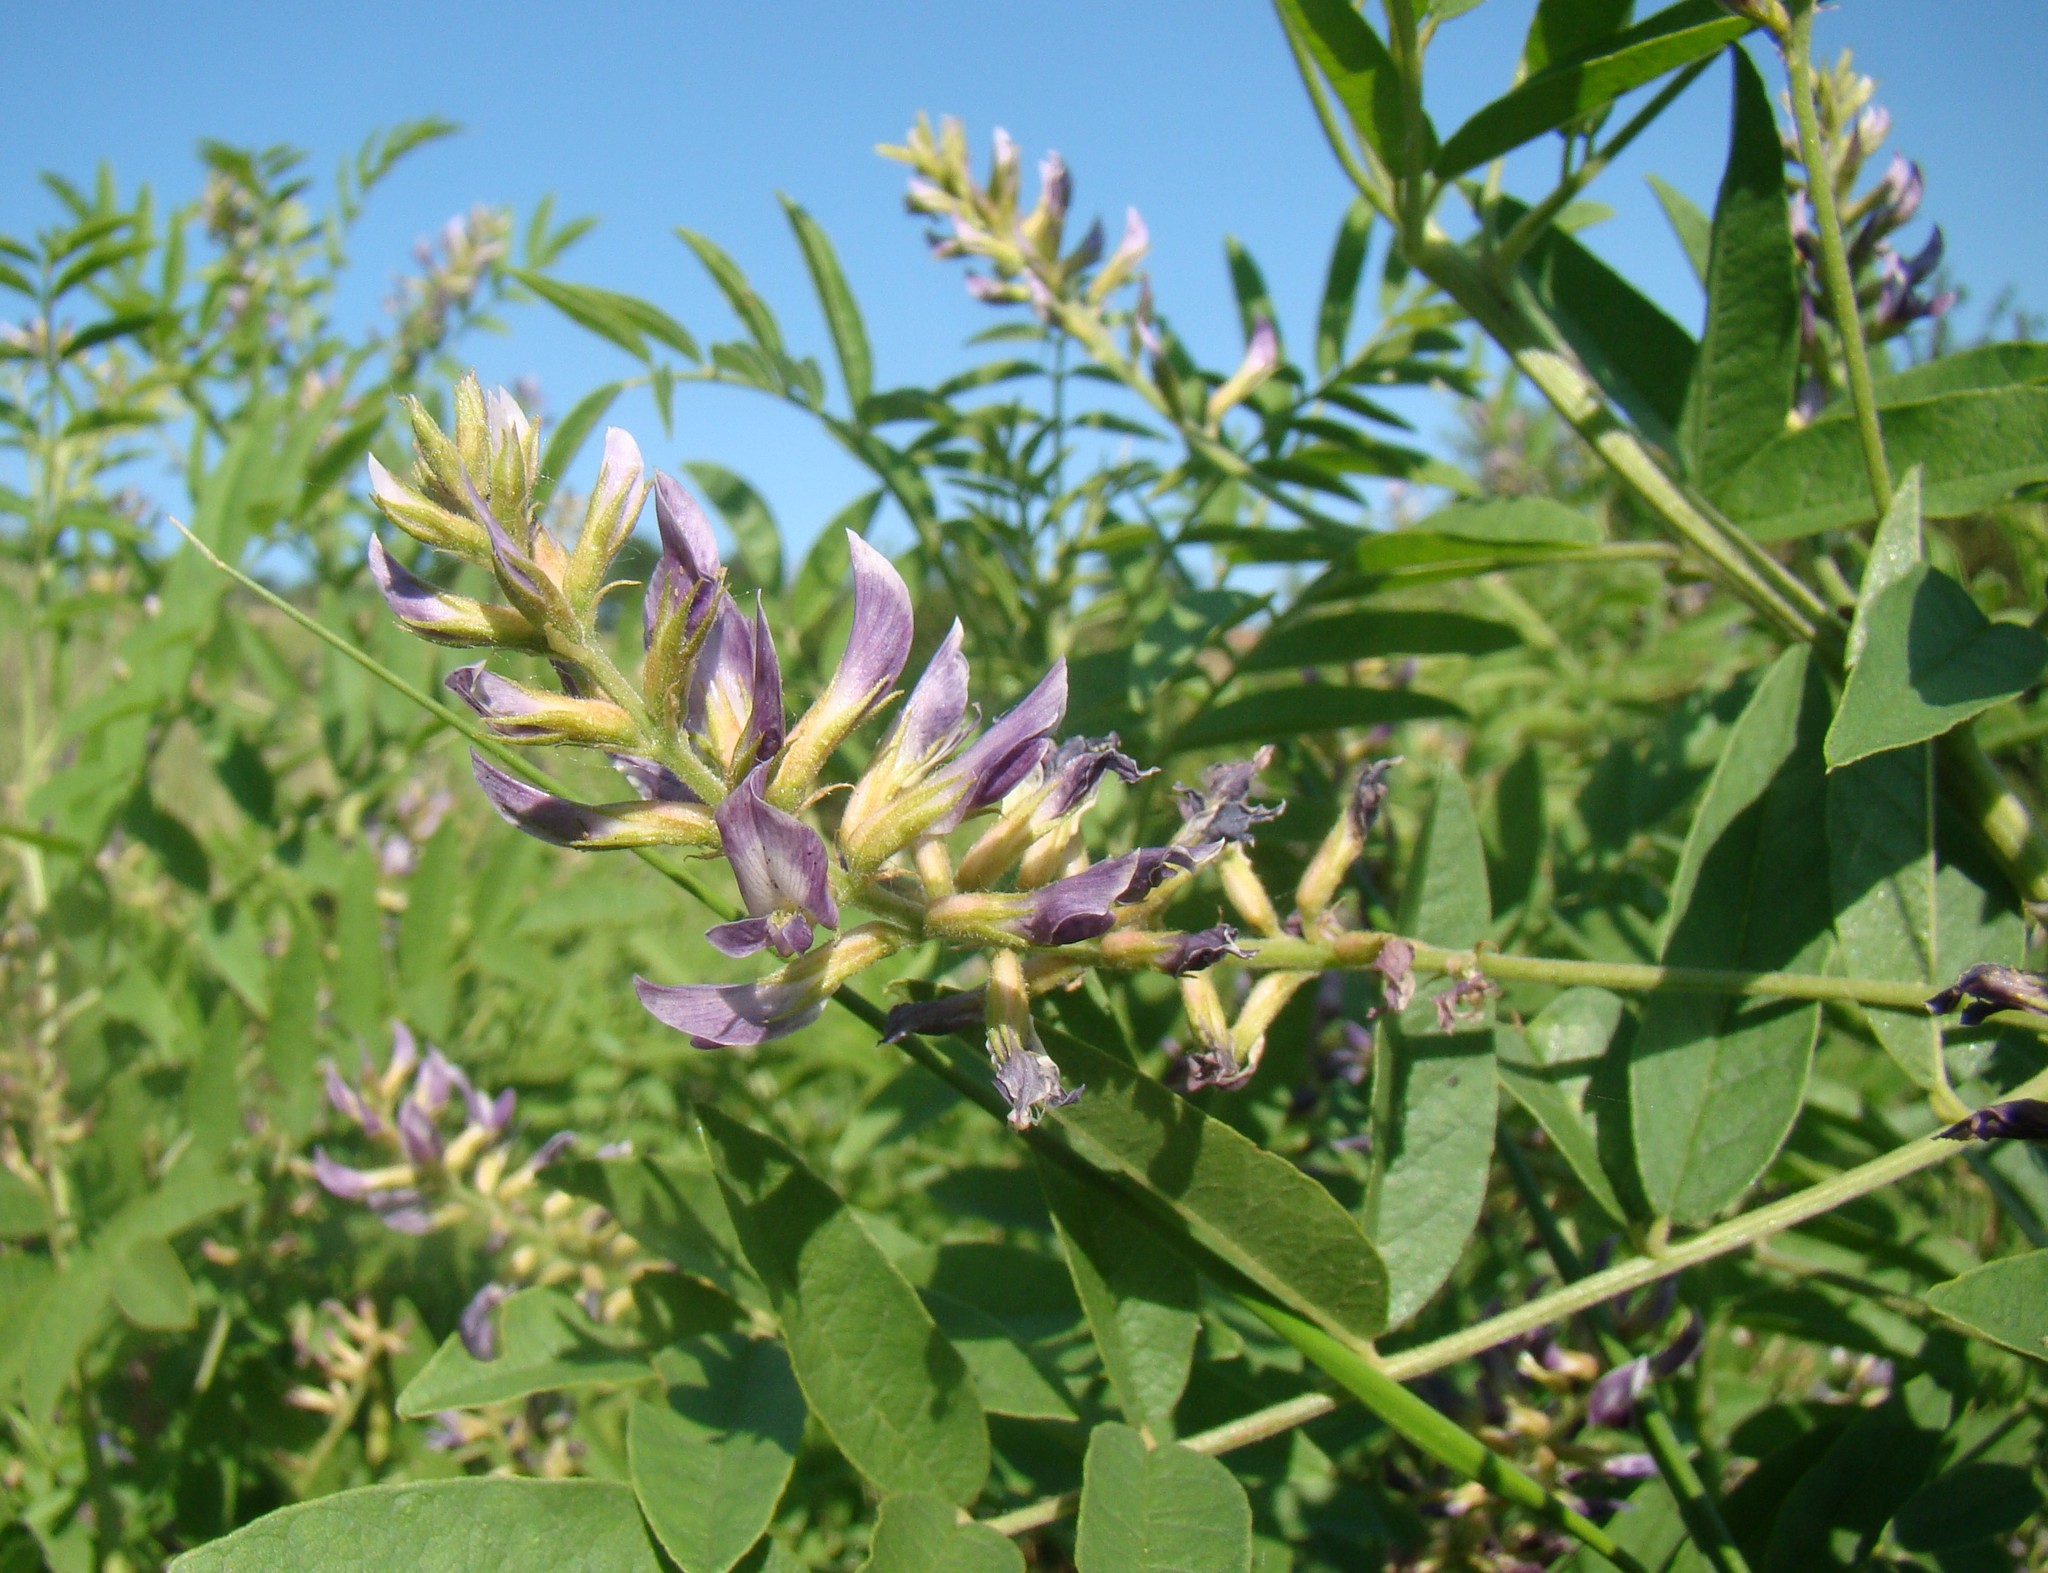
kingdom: Plantae
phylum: Tracheophyta
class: Magnoliopsida
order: Fabales
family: Fabaceae
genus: Glycyrrhiza
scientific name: Glycyrrhiza glabra
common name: Liquorice
